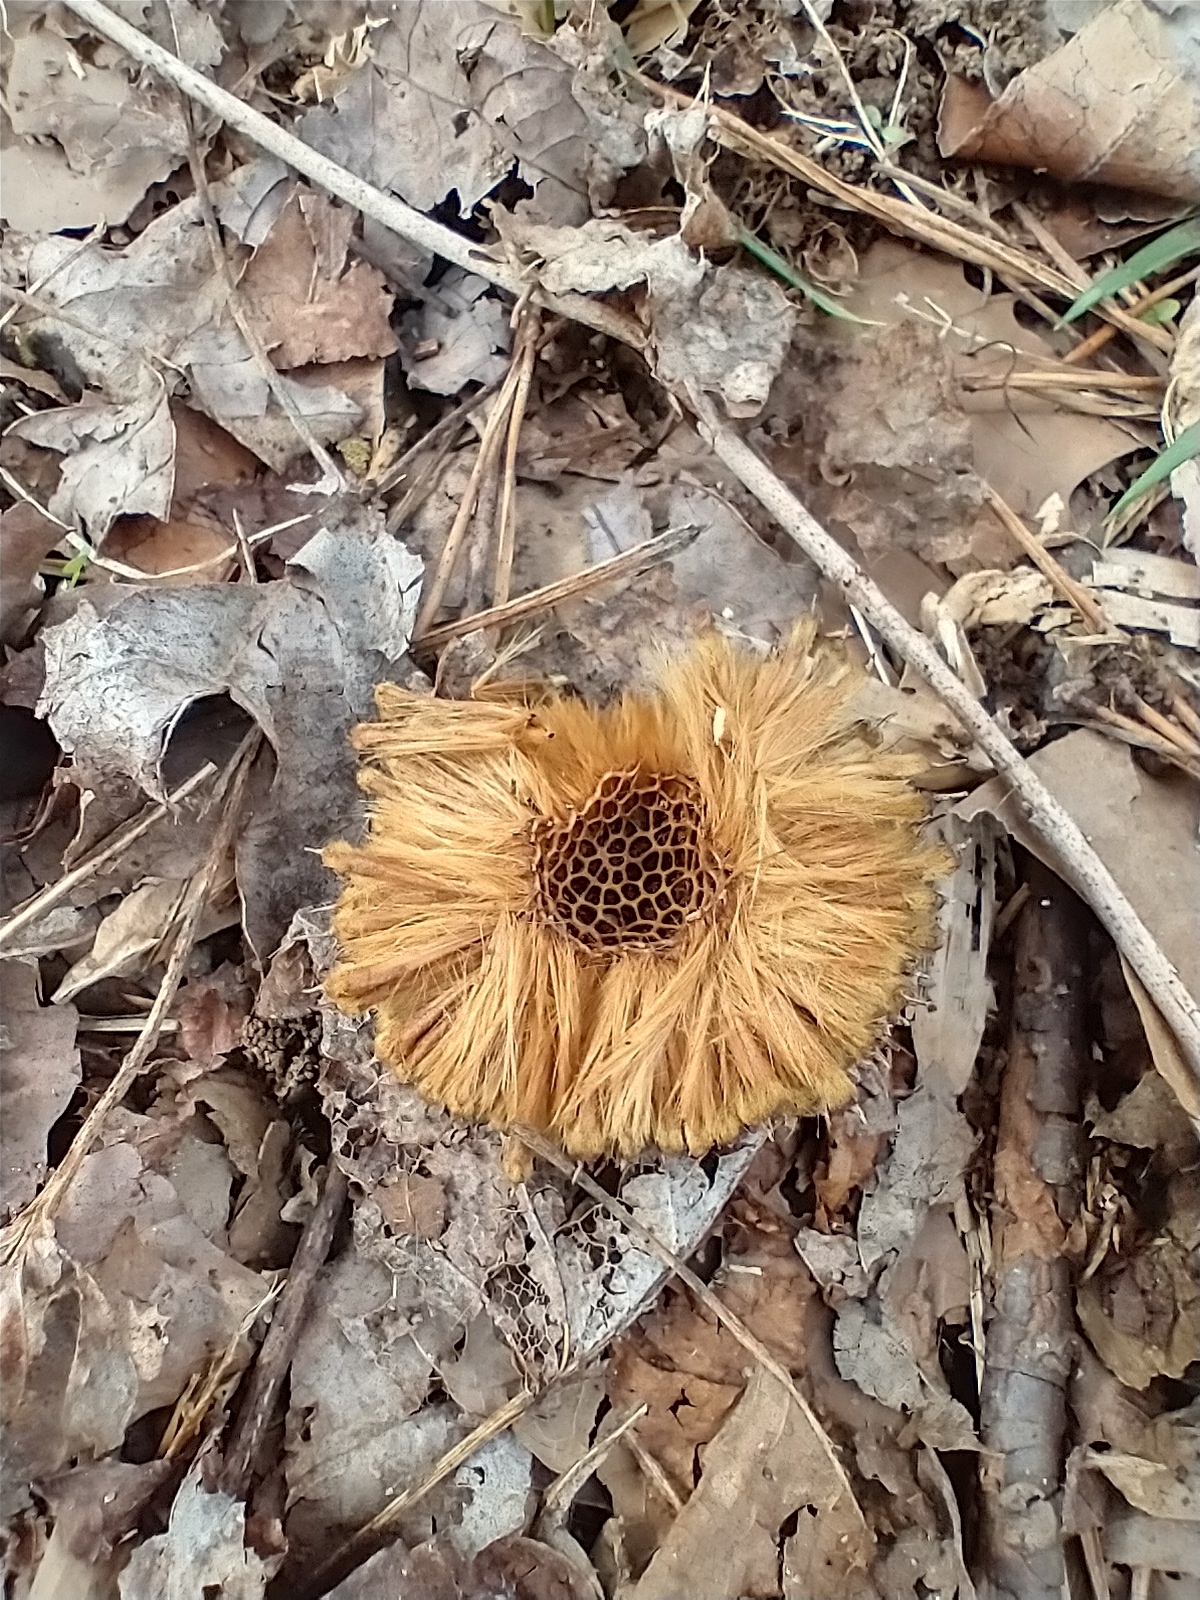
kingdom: Plantae
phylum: Tracheophyta
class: Magnoliopsida
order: Proteales
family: Platanaceae
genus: Platanus
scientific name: Platanus occidentalis
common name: American sycamore
